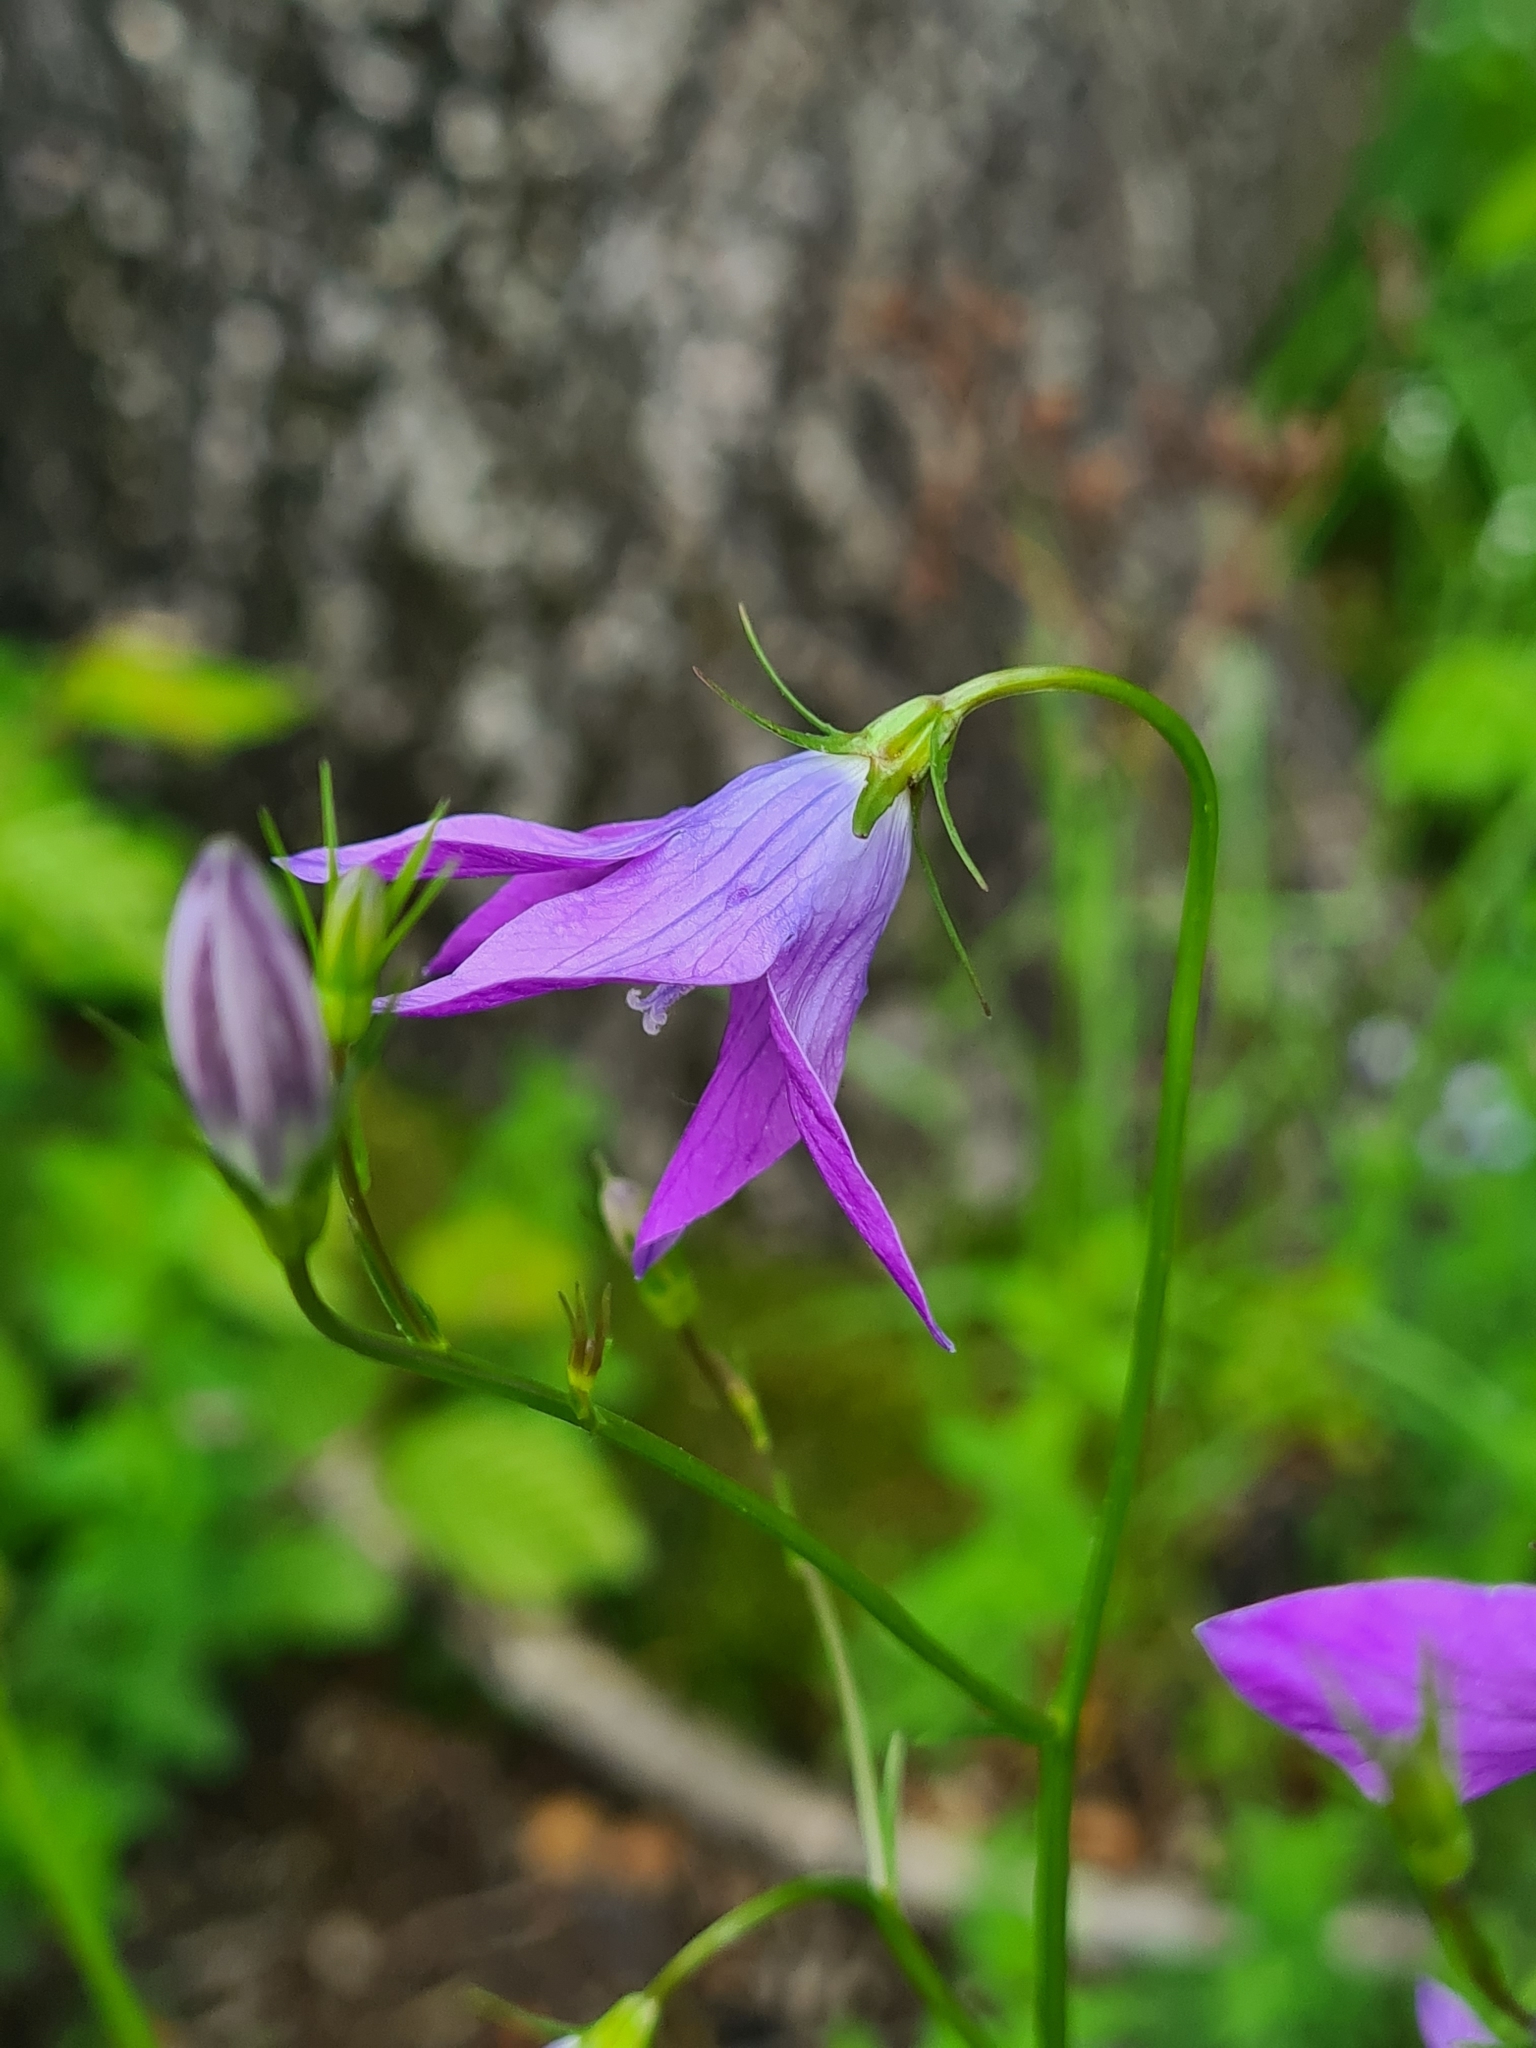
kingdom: Plantae
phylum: Tracheophyta
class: Magnoliopsida
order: Asterales
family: Campanulaceae
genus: Campanula
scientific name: Campanula patula
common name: Spreading bellflower
